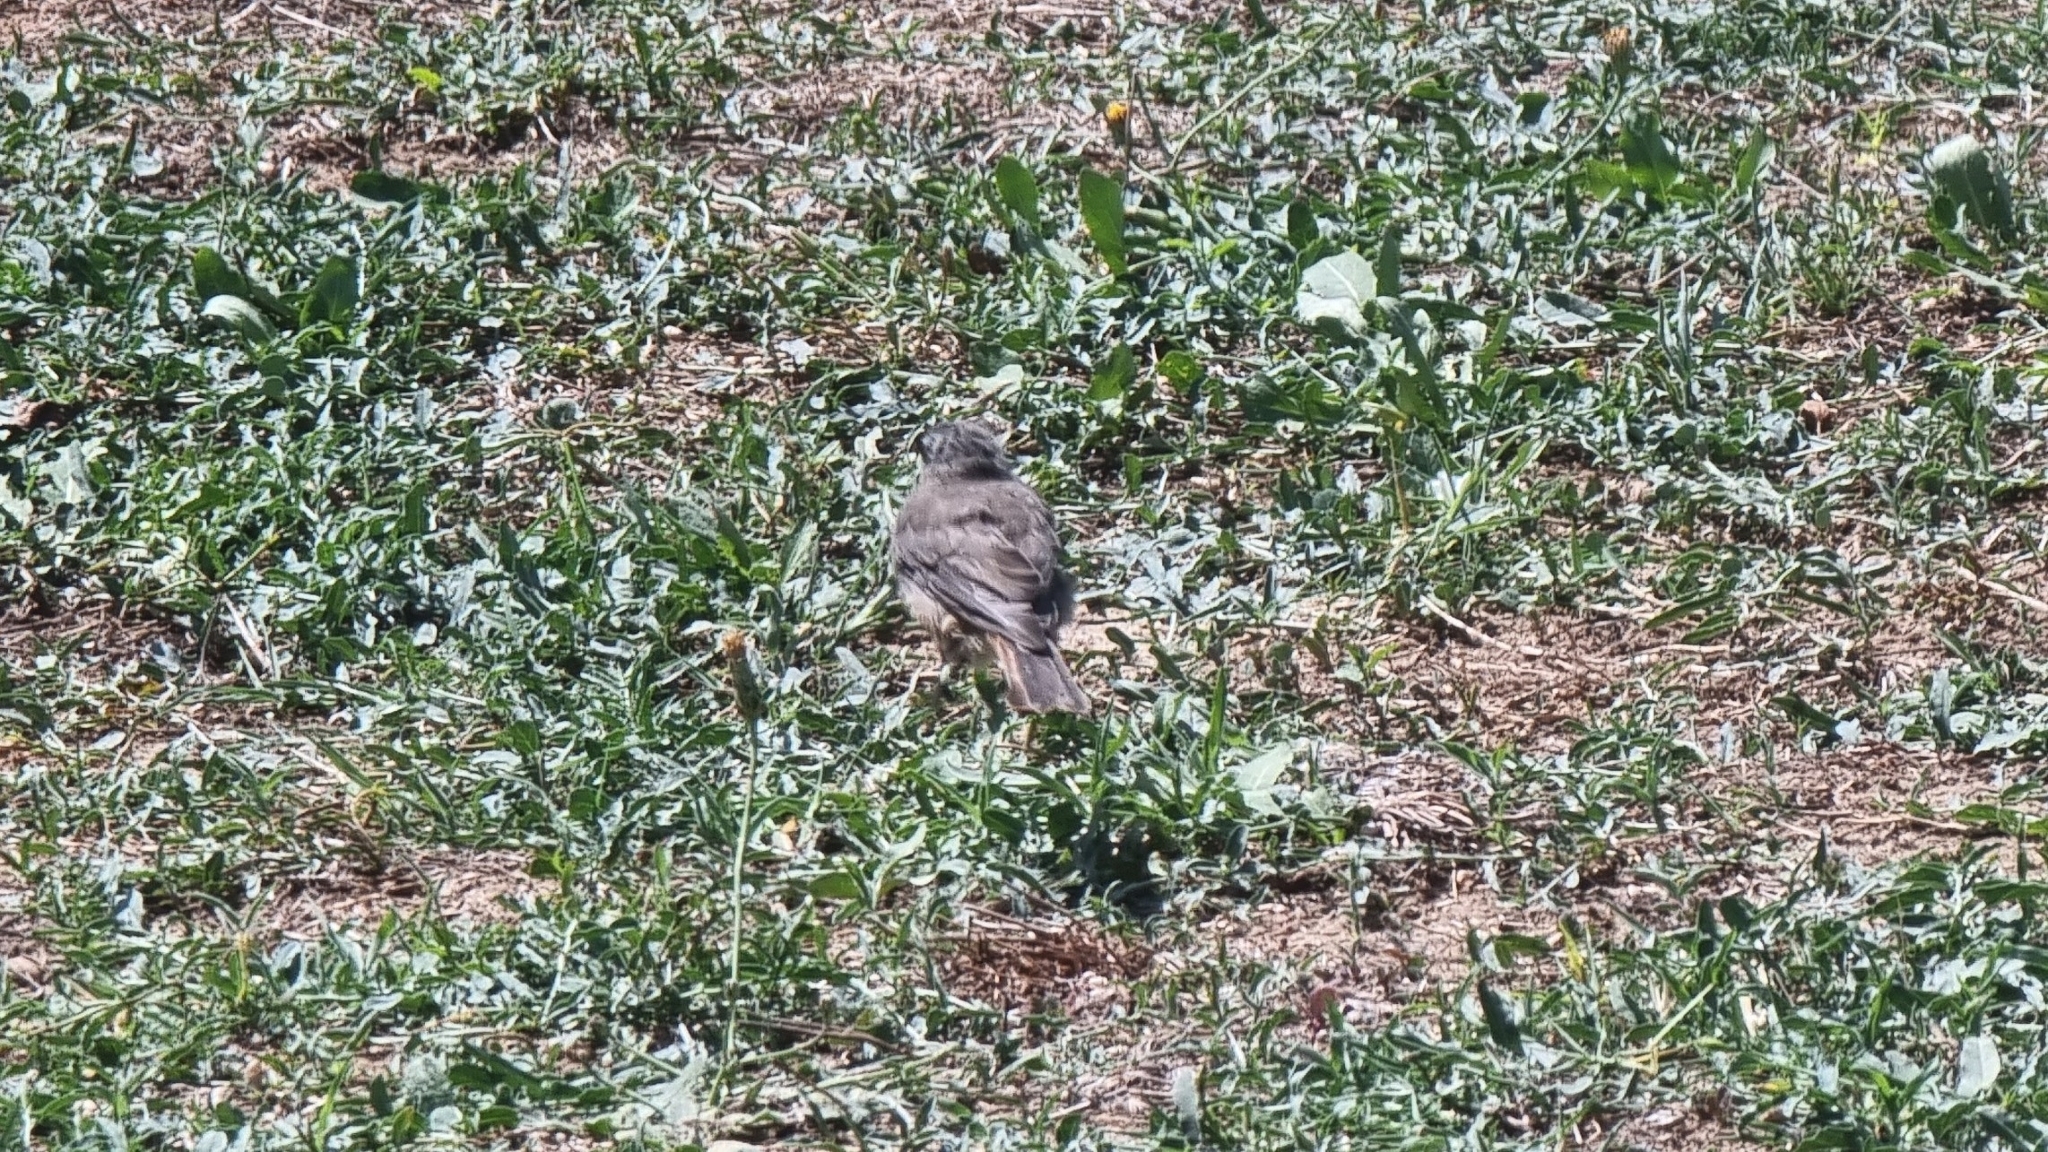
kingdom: Animalia
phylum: Chordata
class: Aves
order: Passeriformes
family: Muscicapidae
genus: Phoenicurus
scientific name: Phoenicurus ochruros
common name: Black redstart
